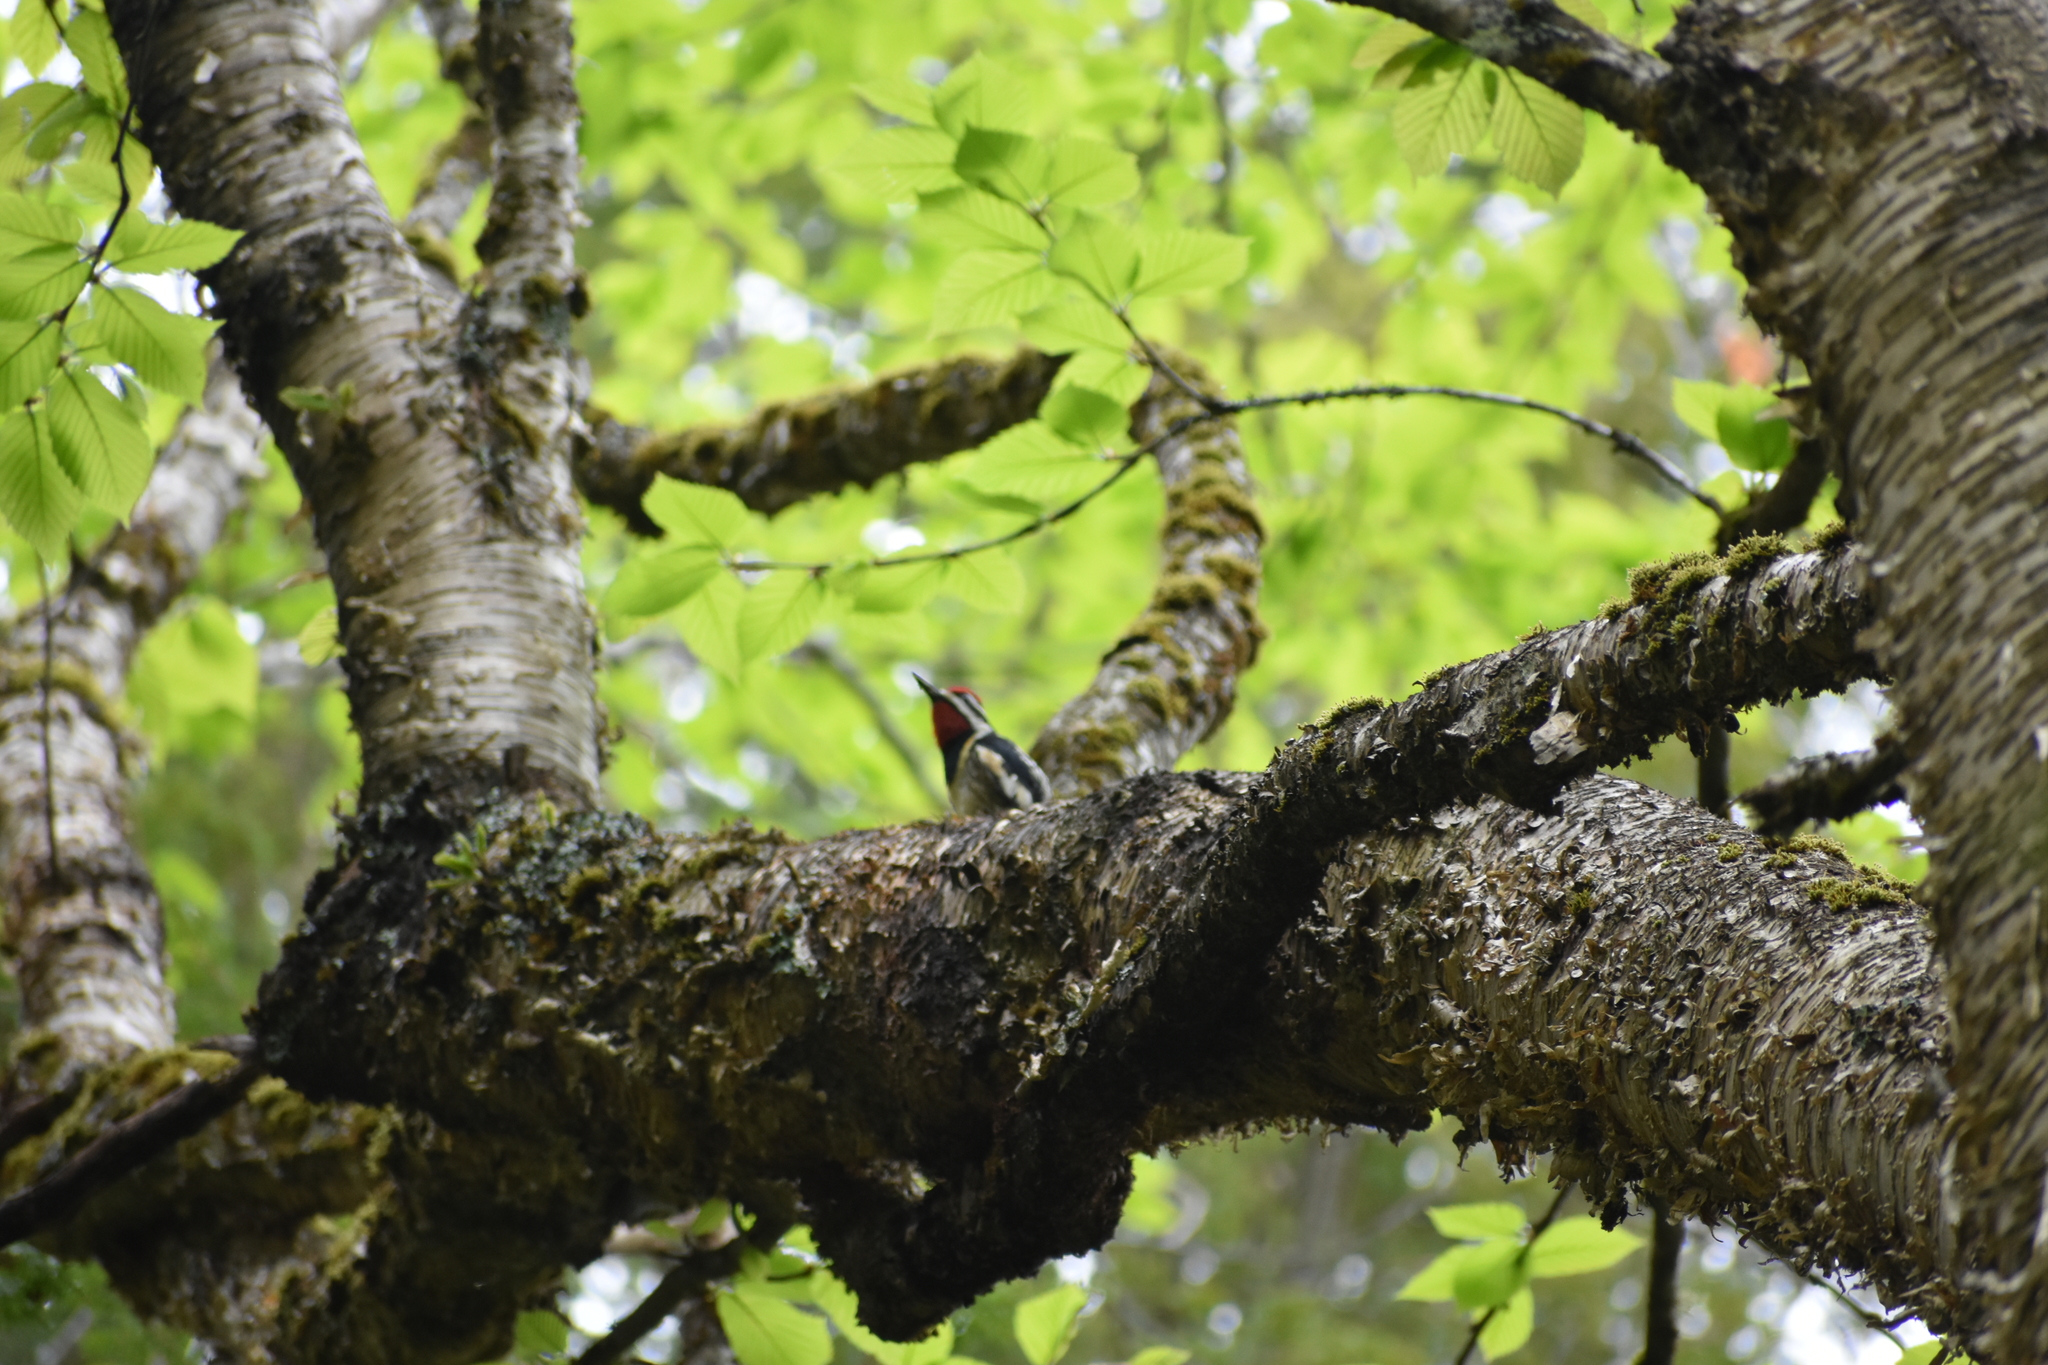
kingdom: Animalia
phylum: Chordata
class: Aves
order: Piciformes
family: Picidae
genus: Sphyrapicus
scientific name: Sphyrapicus varius
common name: Yellow-bellied sapsucker
